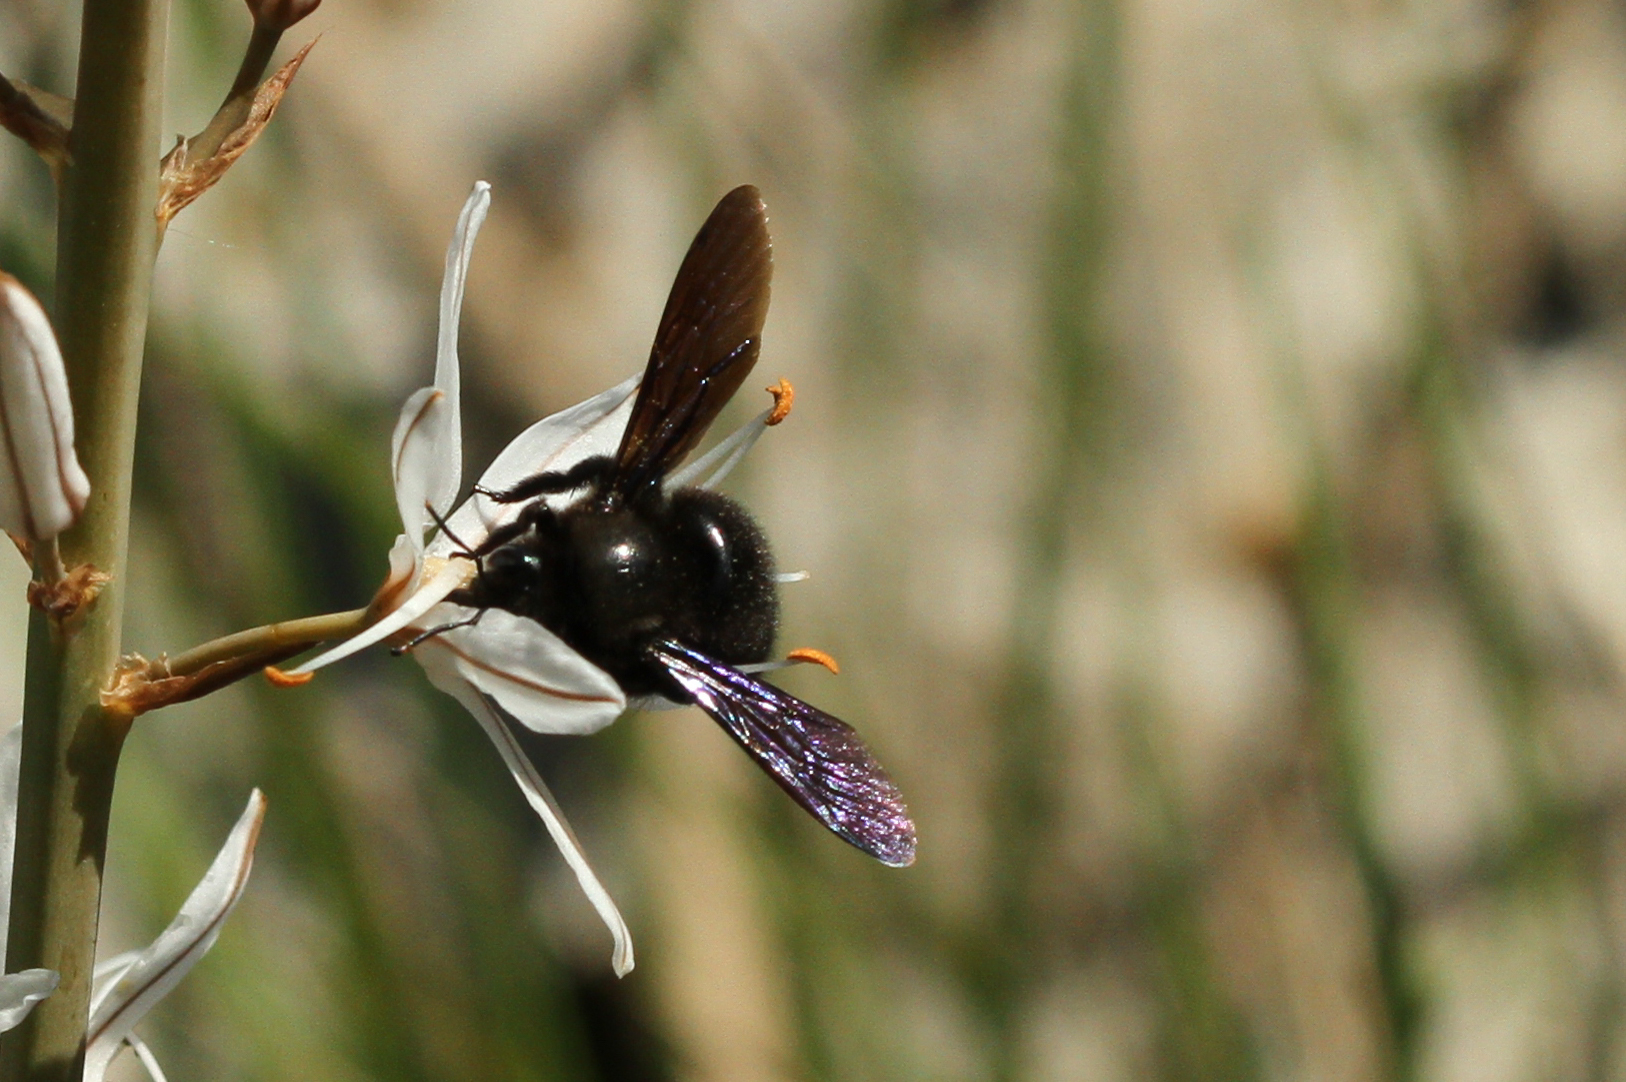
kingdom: Animalia
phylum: Arthropoda
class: Insecta
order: Hymenoptera
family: Apidae
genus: Xylocopa
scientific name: Xylocopa violacea
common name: Violet carpenter bee
